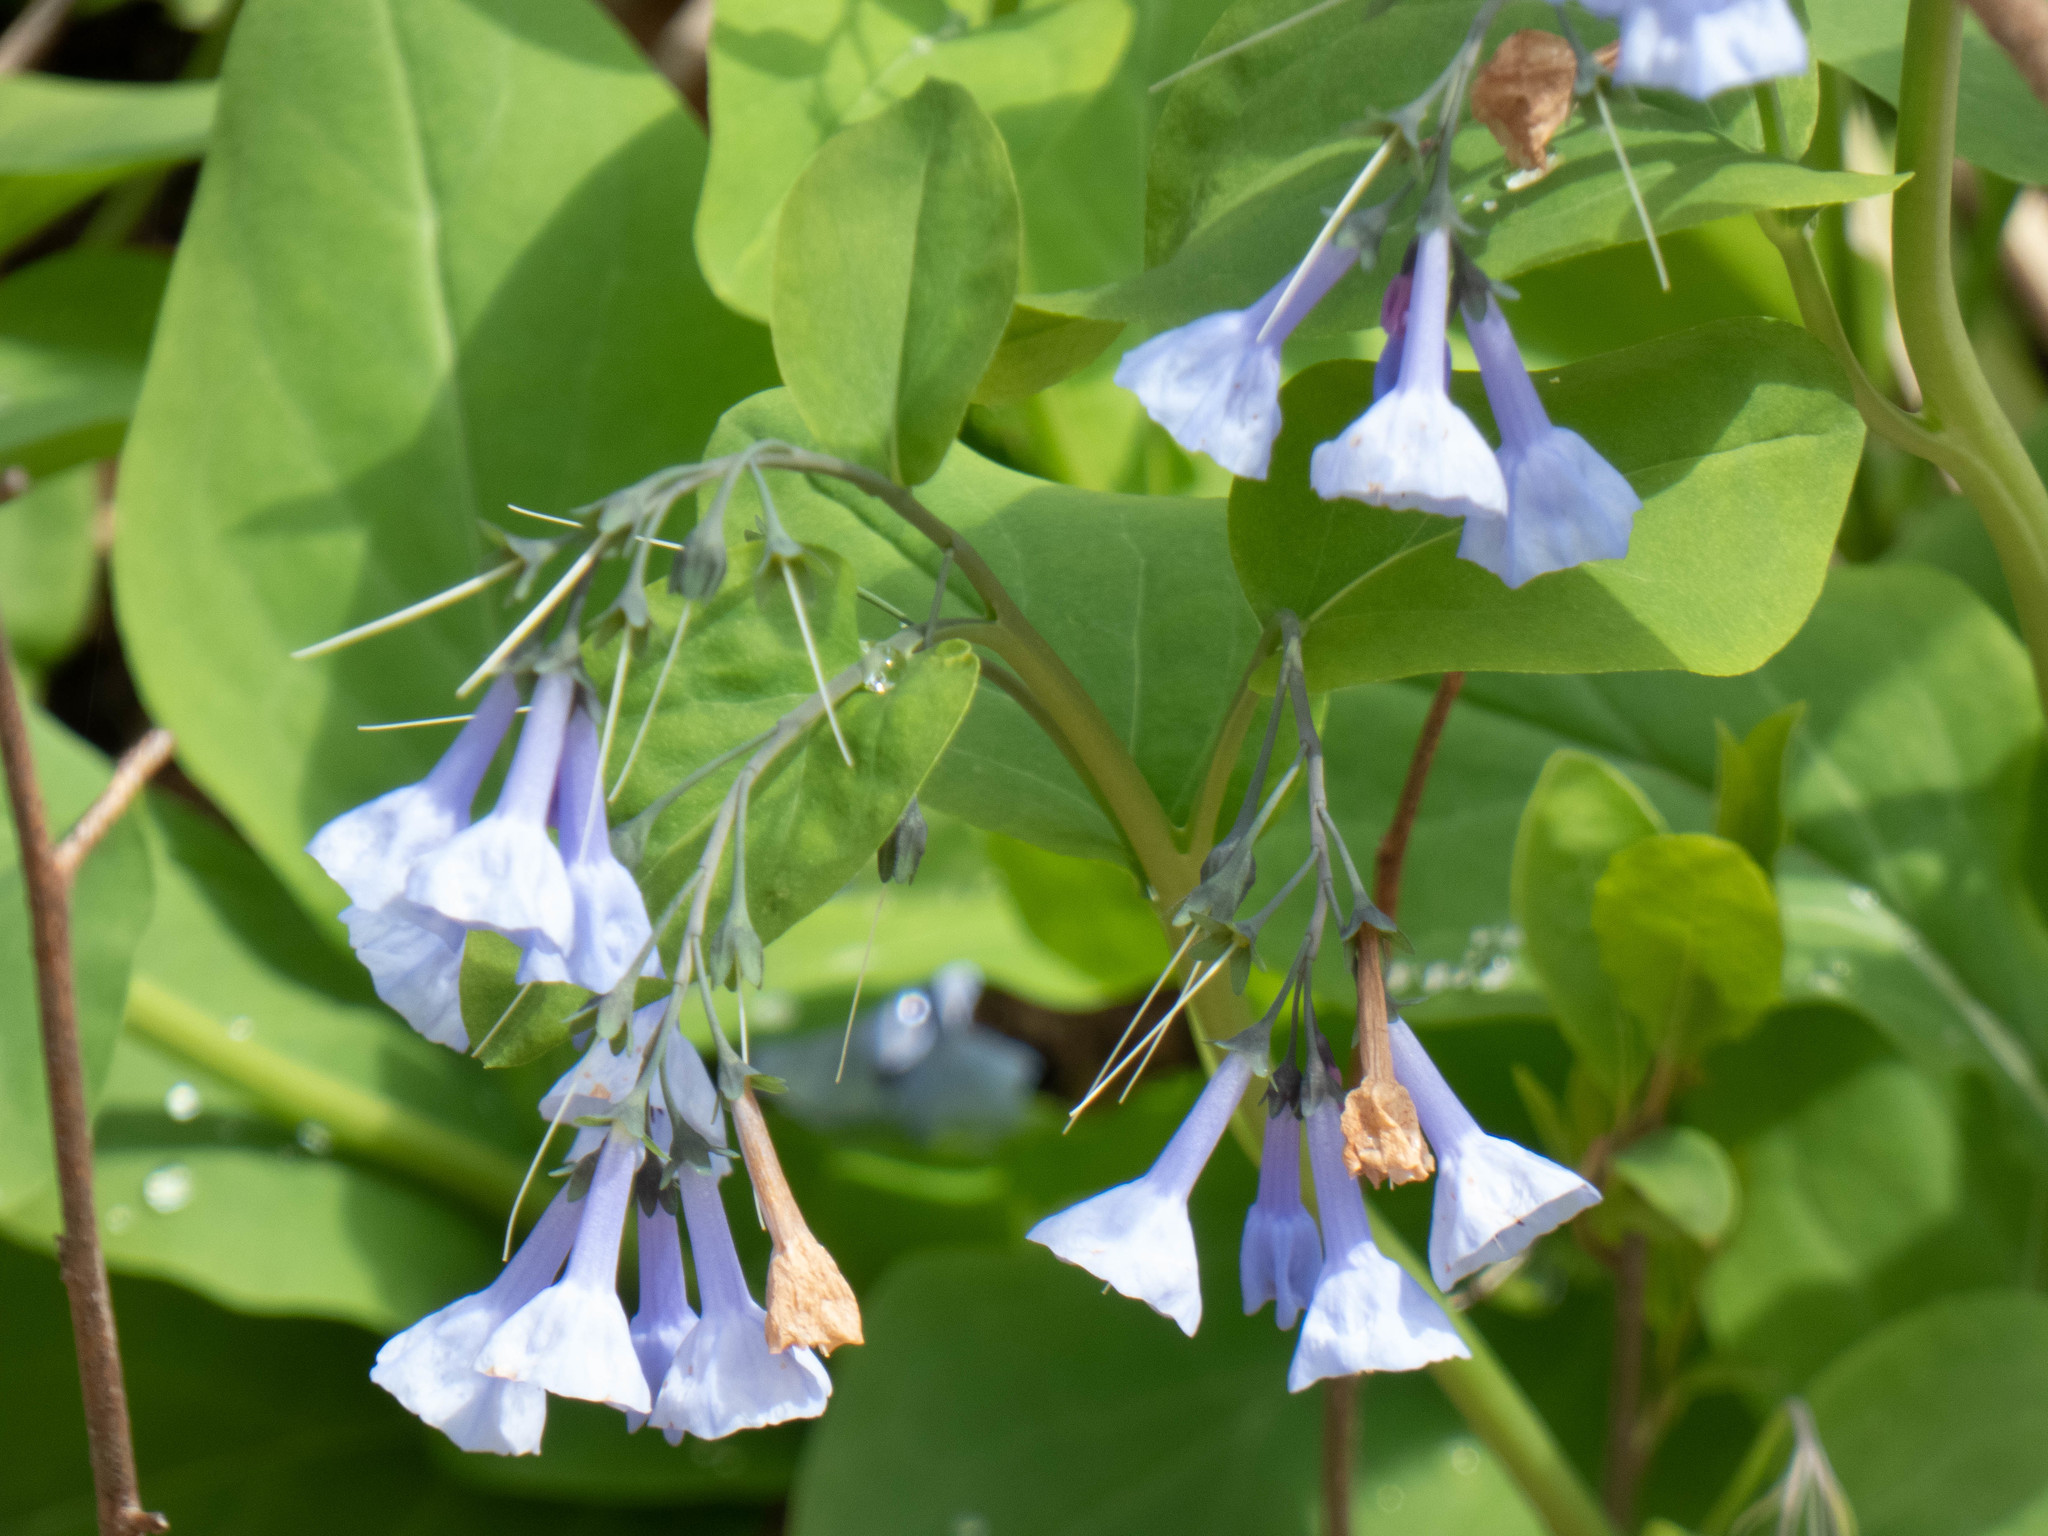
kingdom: Plantae
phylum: Tracheophyta
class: Magnoliopsida
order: Boraginales
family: Boraginaceae
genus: Mertensia
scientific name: Mertensia virginica
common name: Virginia bluebells
